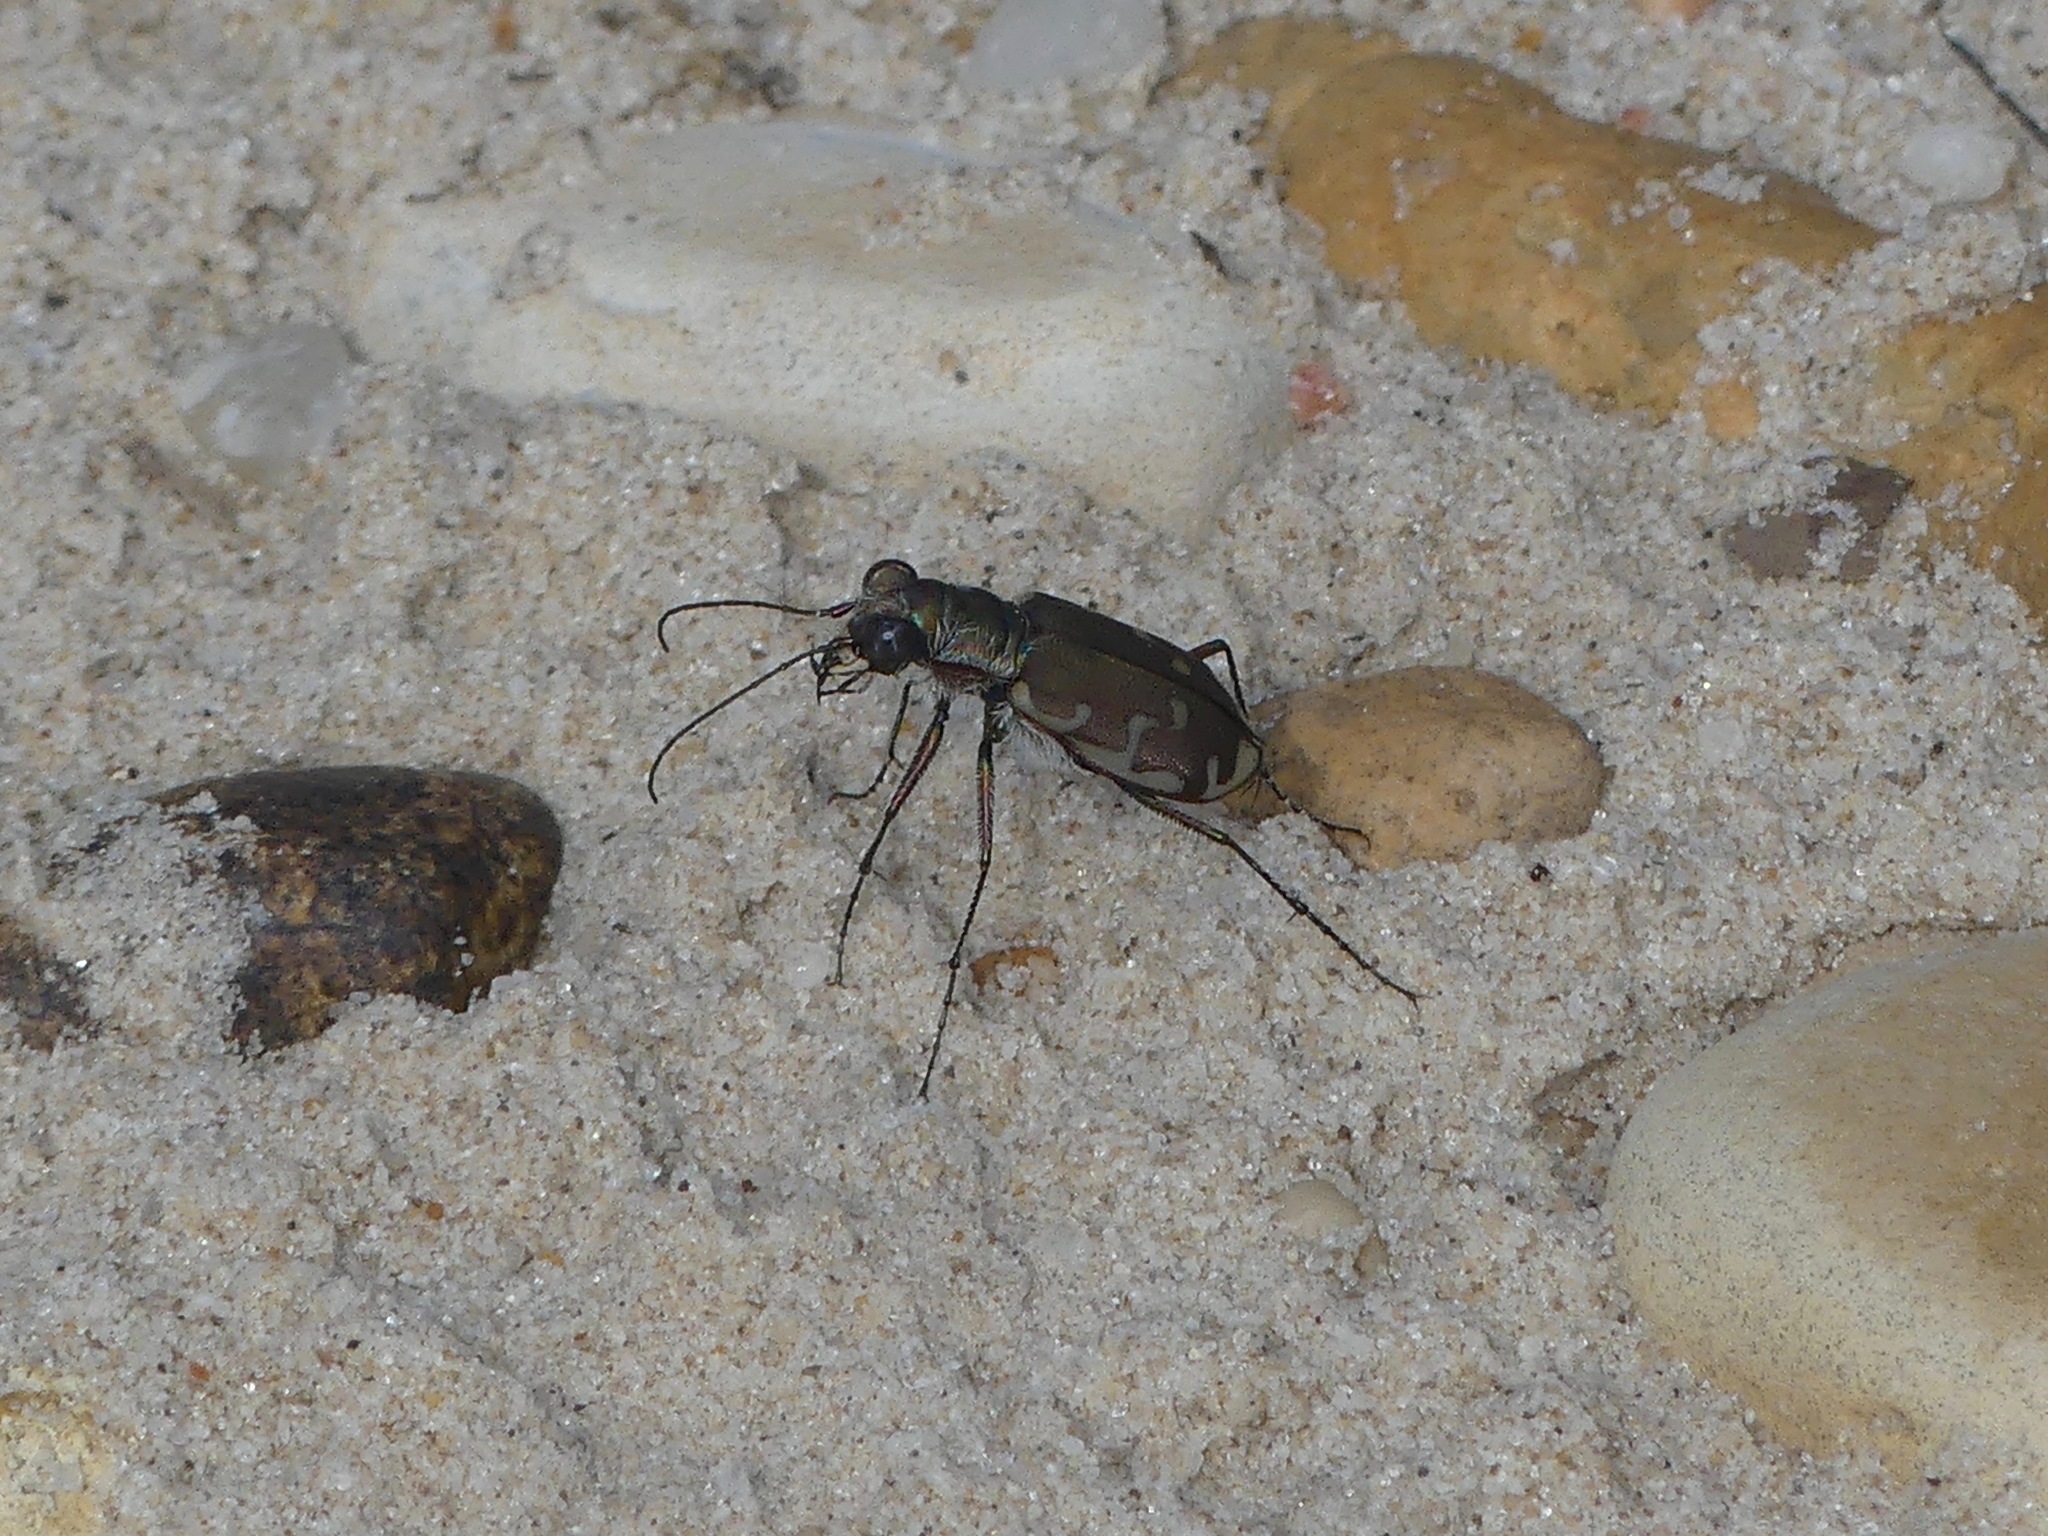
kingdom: Animalia
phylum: Arthropoda
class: Insecta
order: Coleoptera
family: Carabidae
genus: Cicindela
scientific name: Cicindela repanda
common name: Bronzed tiger beetle
